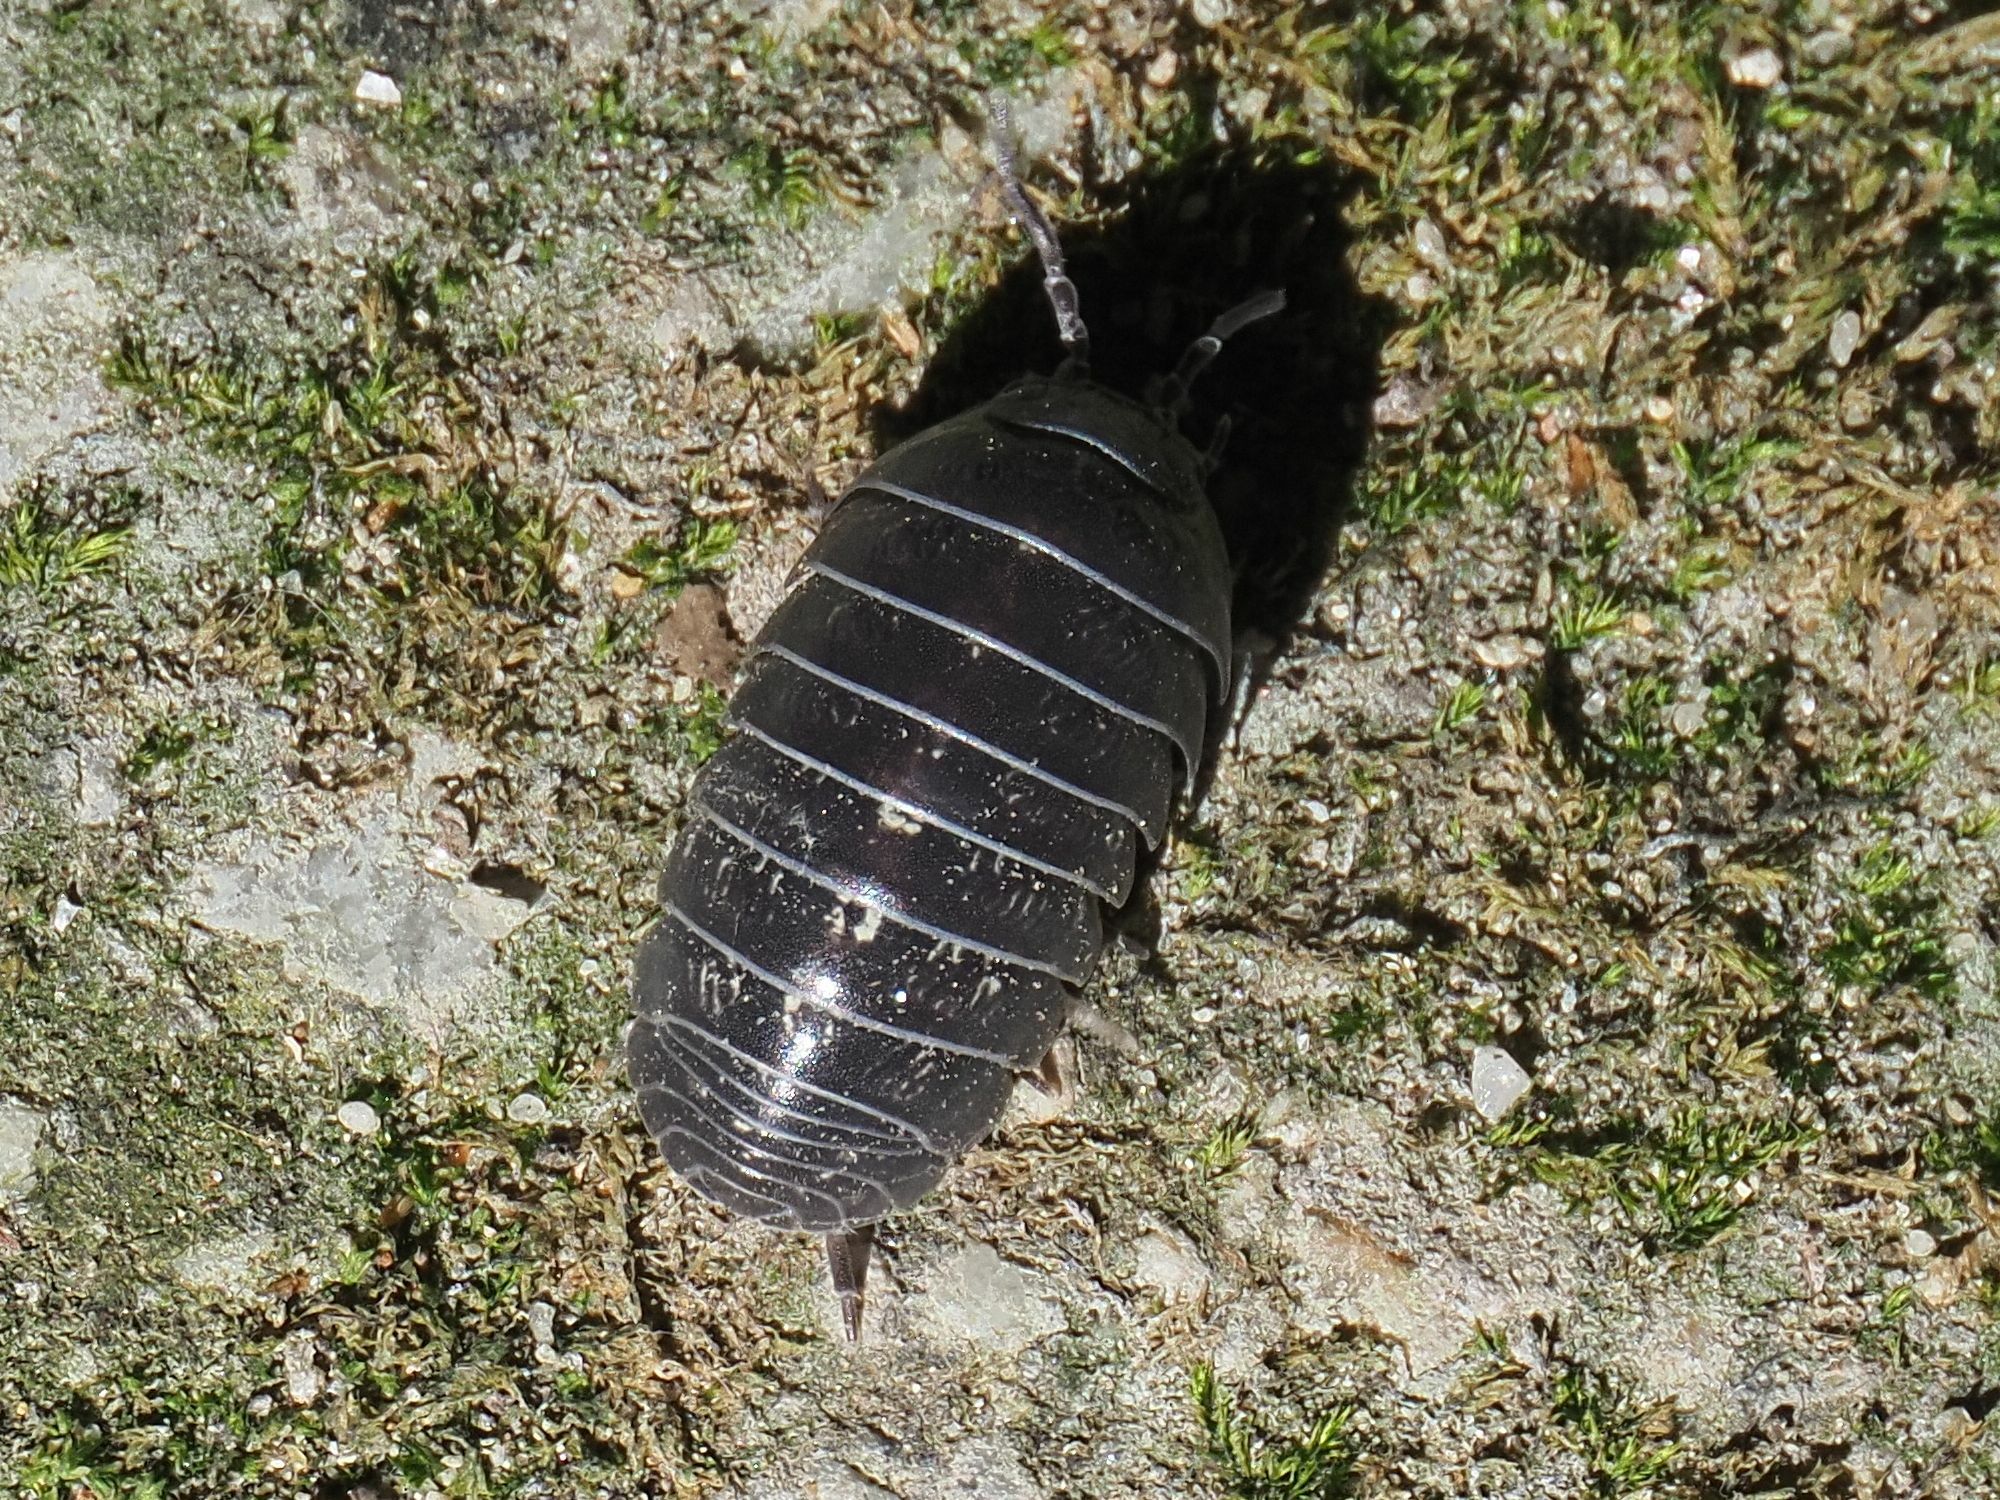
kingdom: Animalia
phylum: Arthropoda
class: Malacostraca
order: Isopoda
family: Armadillidiidae
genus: Armadillidium
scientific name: Armadillidium vulgare
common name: Common pill woodlouse
